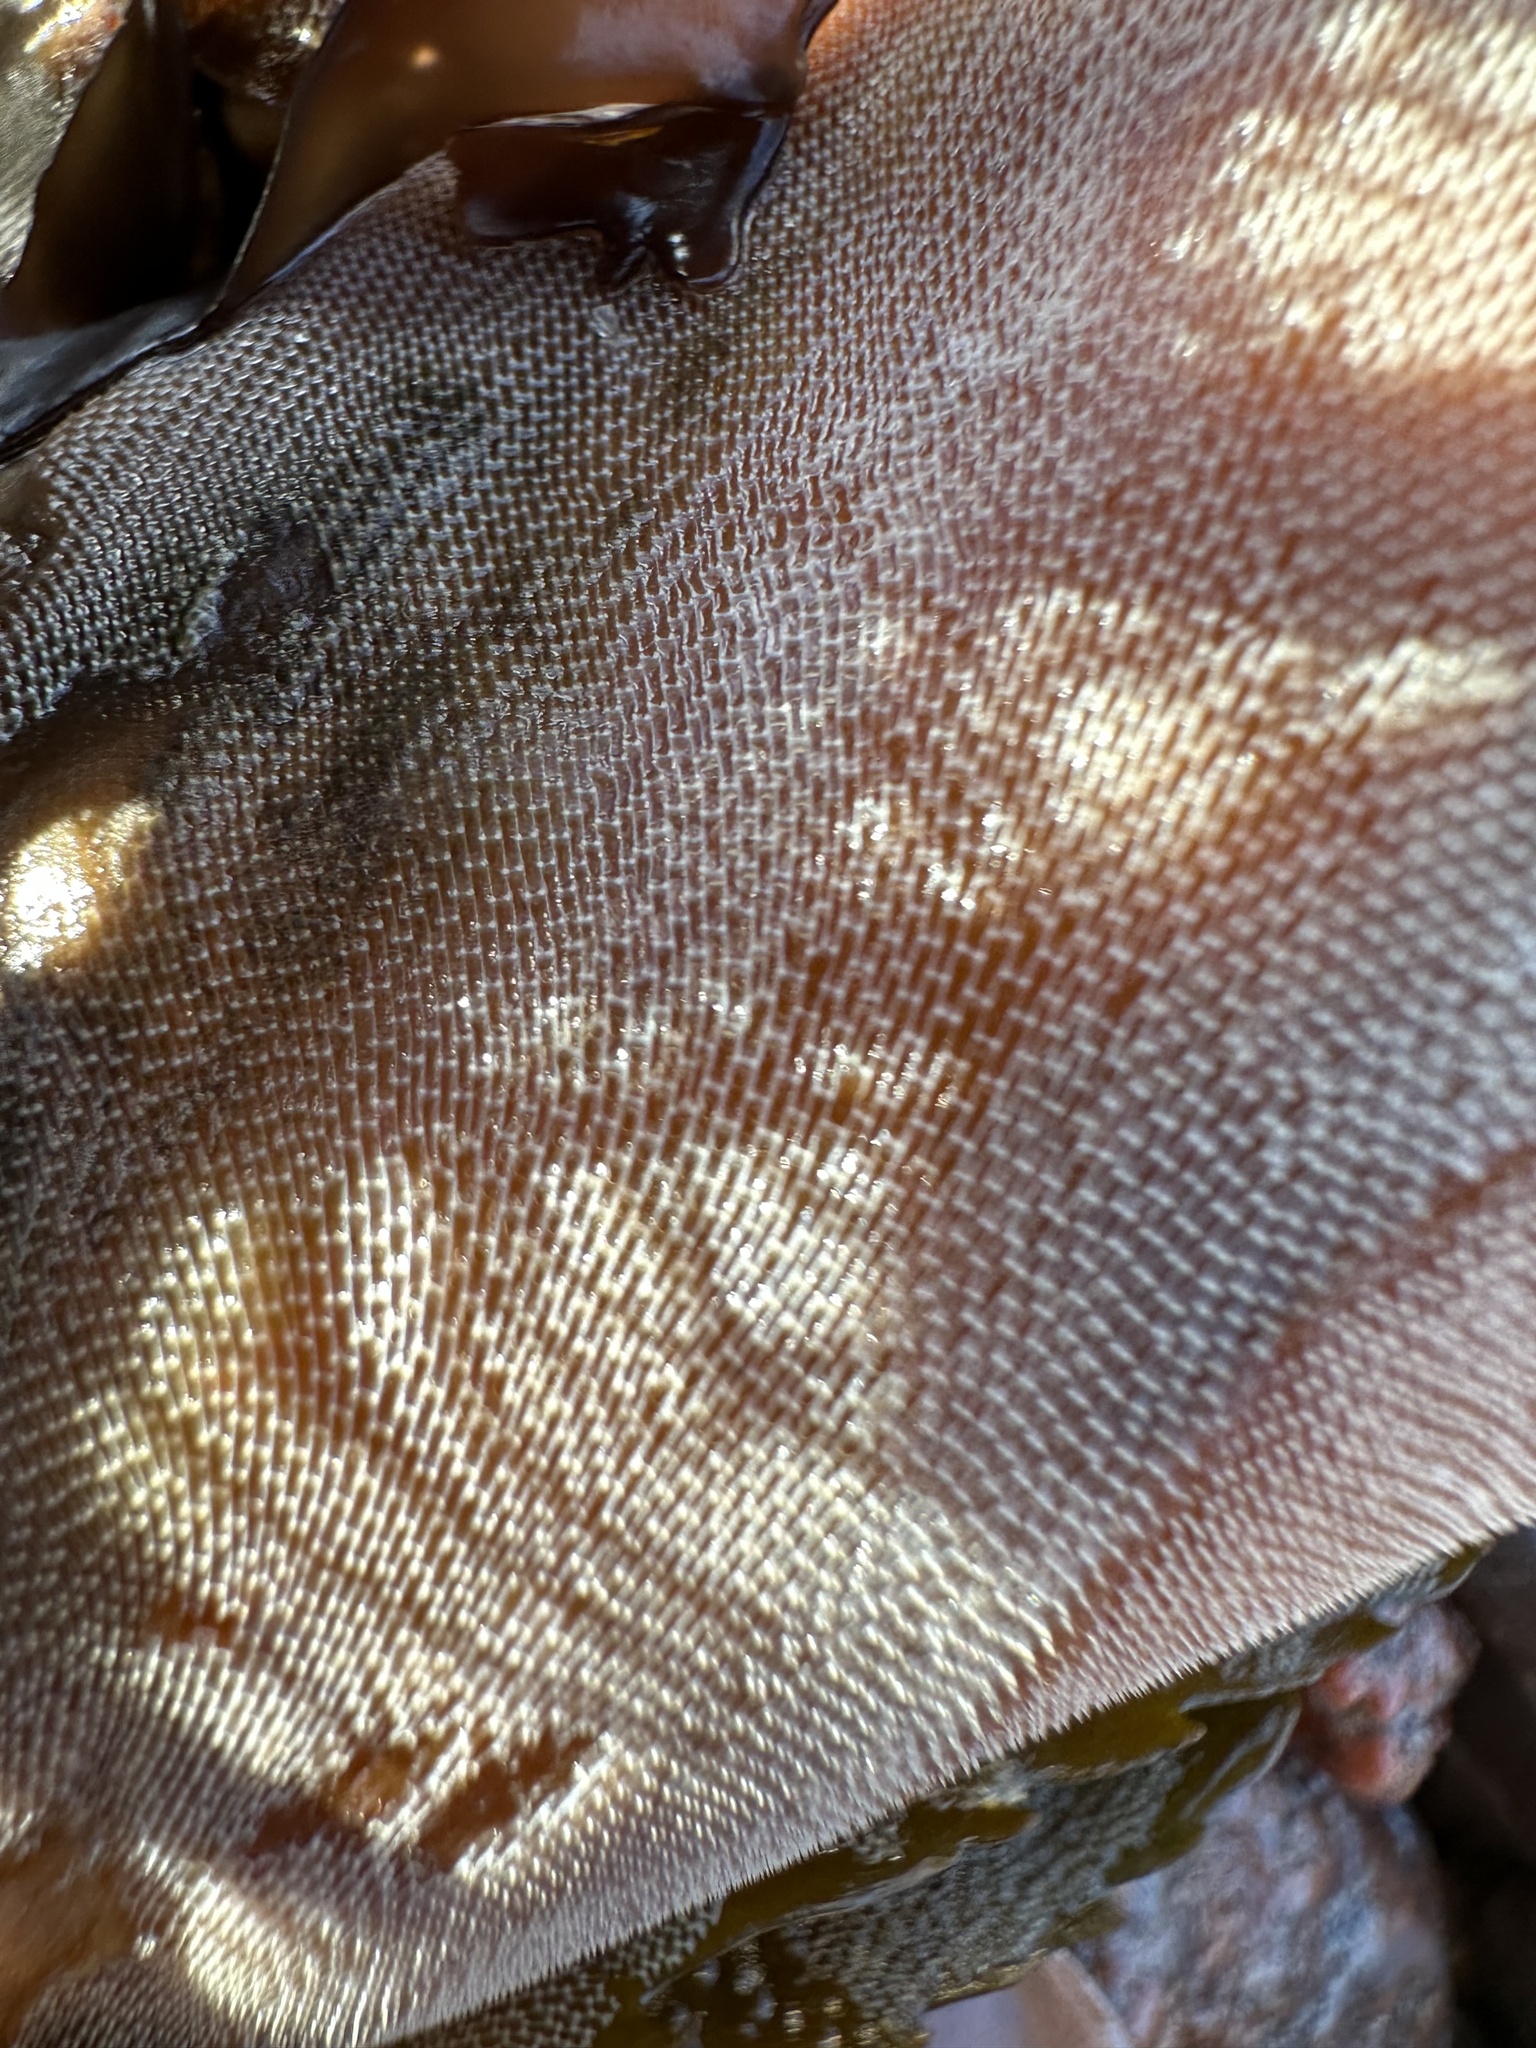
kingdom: Animalia
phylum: Bryozoa
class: Gymnolaemata
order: Cheilostomatida
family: Membraniporidae
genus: Membranipora
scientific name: Membranipora membranacea
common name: Sea mat
